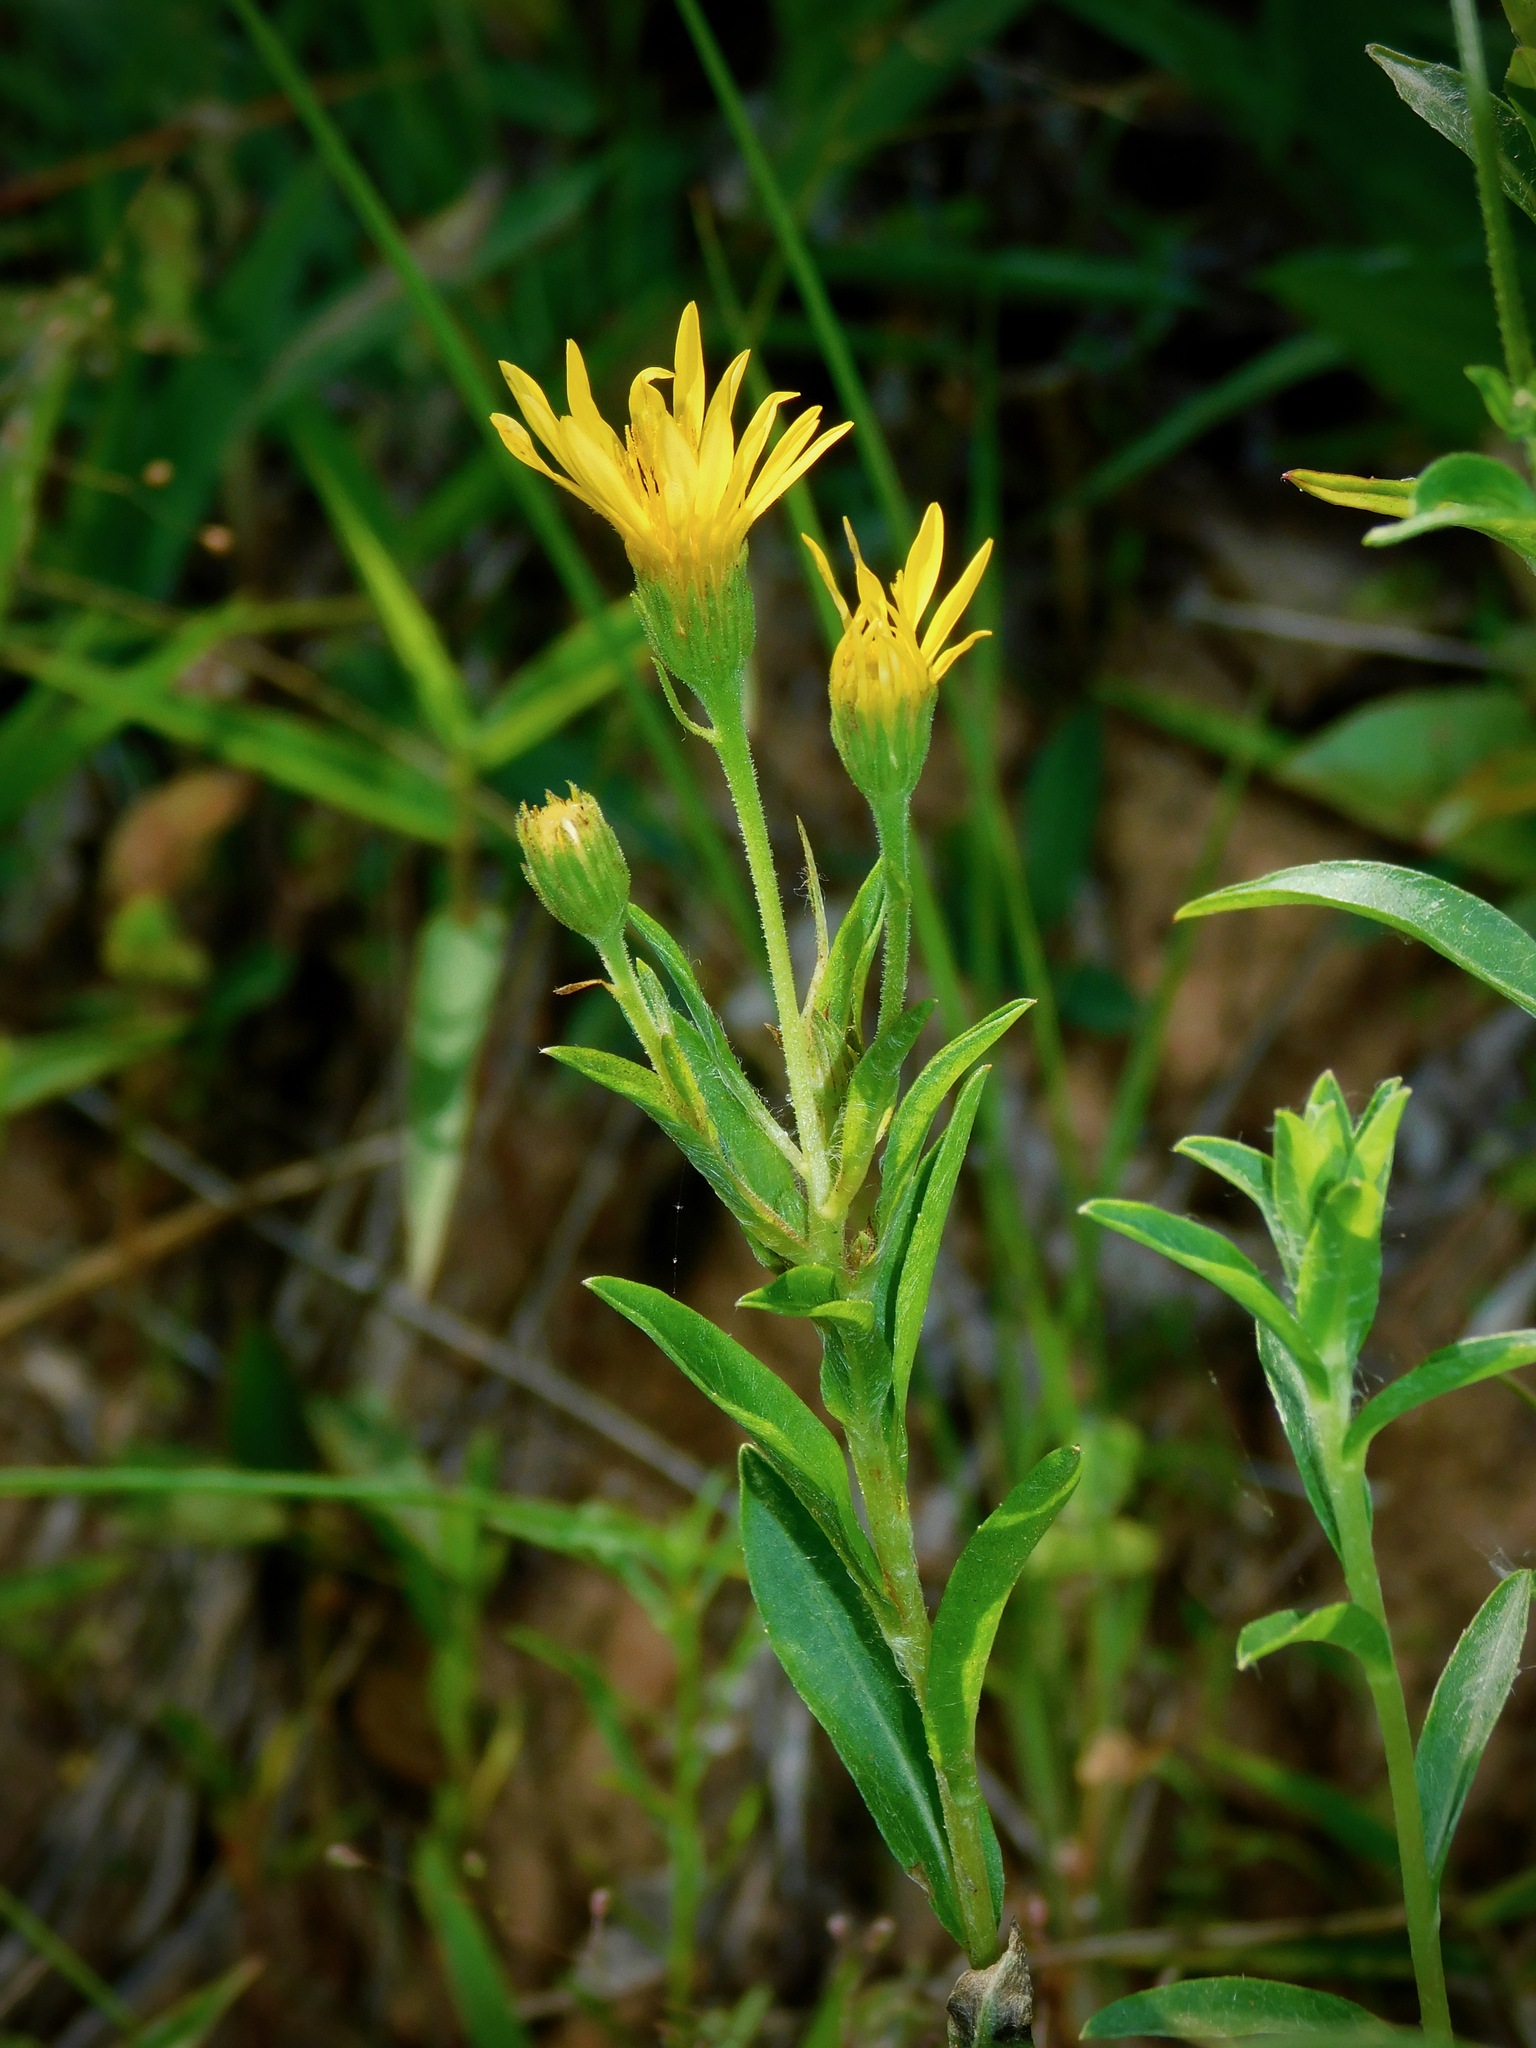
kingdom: Plantae
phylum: Tracheophyta
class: Magnoliopsida
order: Asterales
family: Asteraceae
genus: Chrysopsis
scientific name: Chrysopsis mariana
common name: Maryland golden-aster
